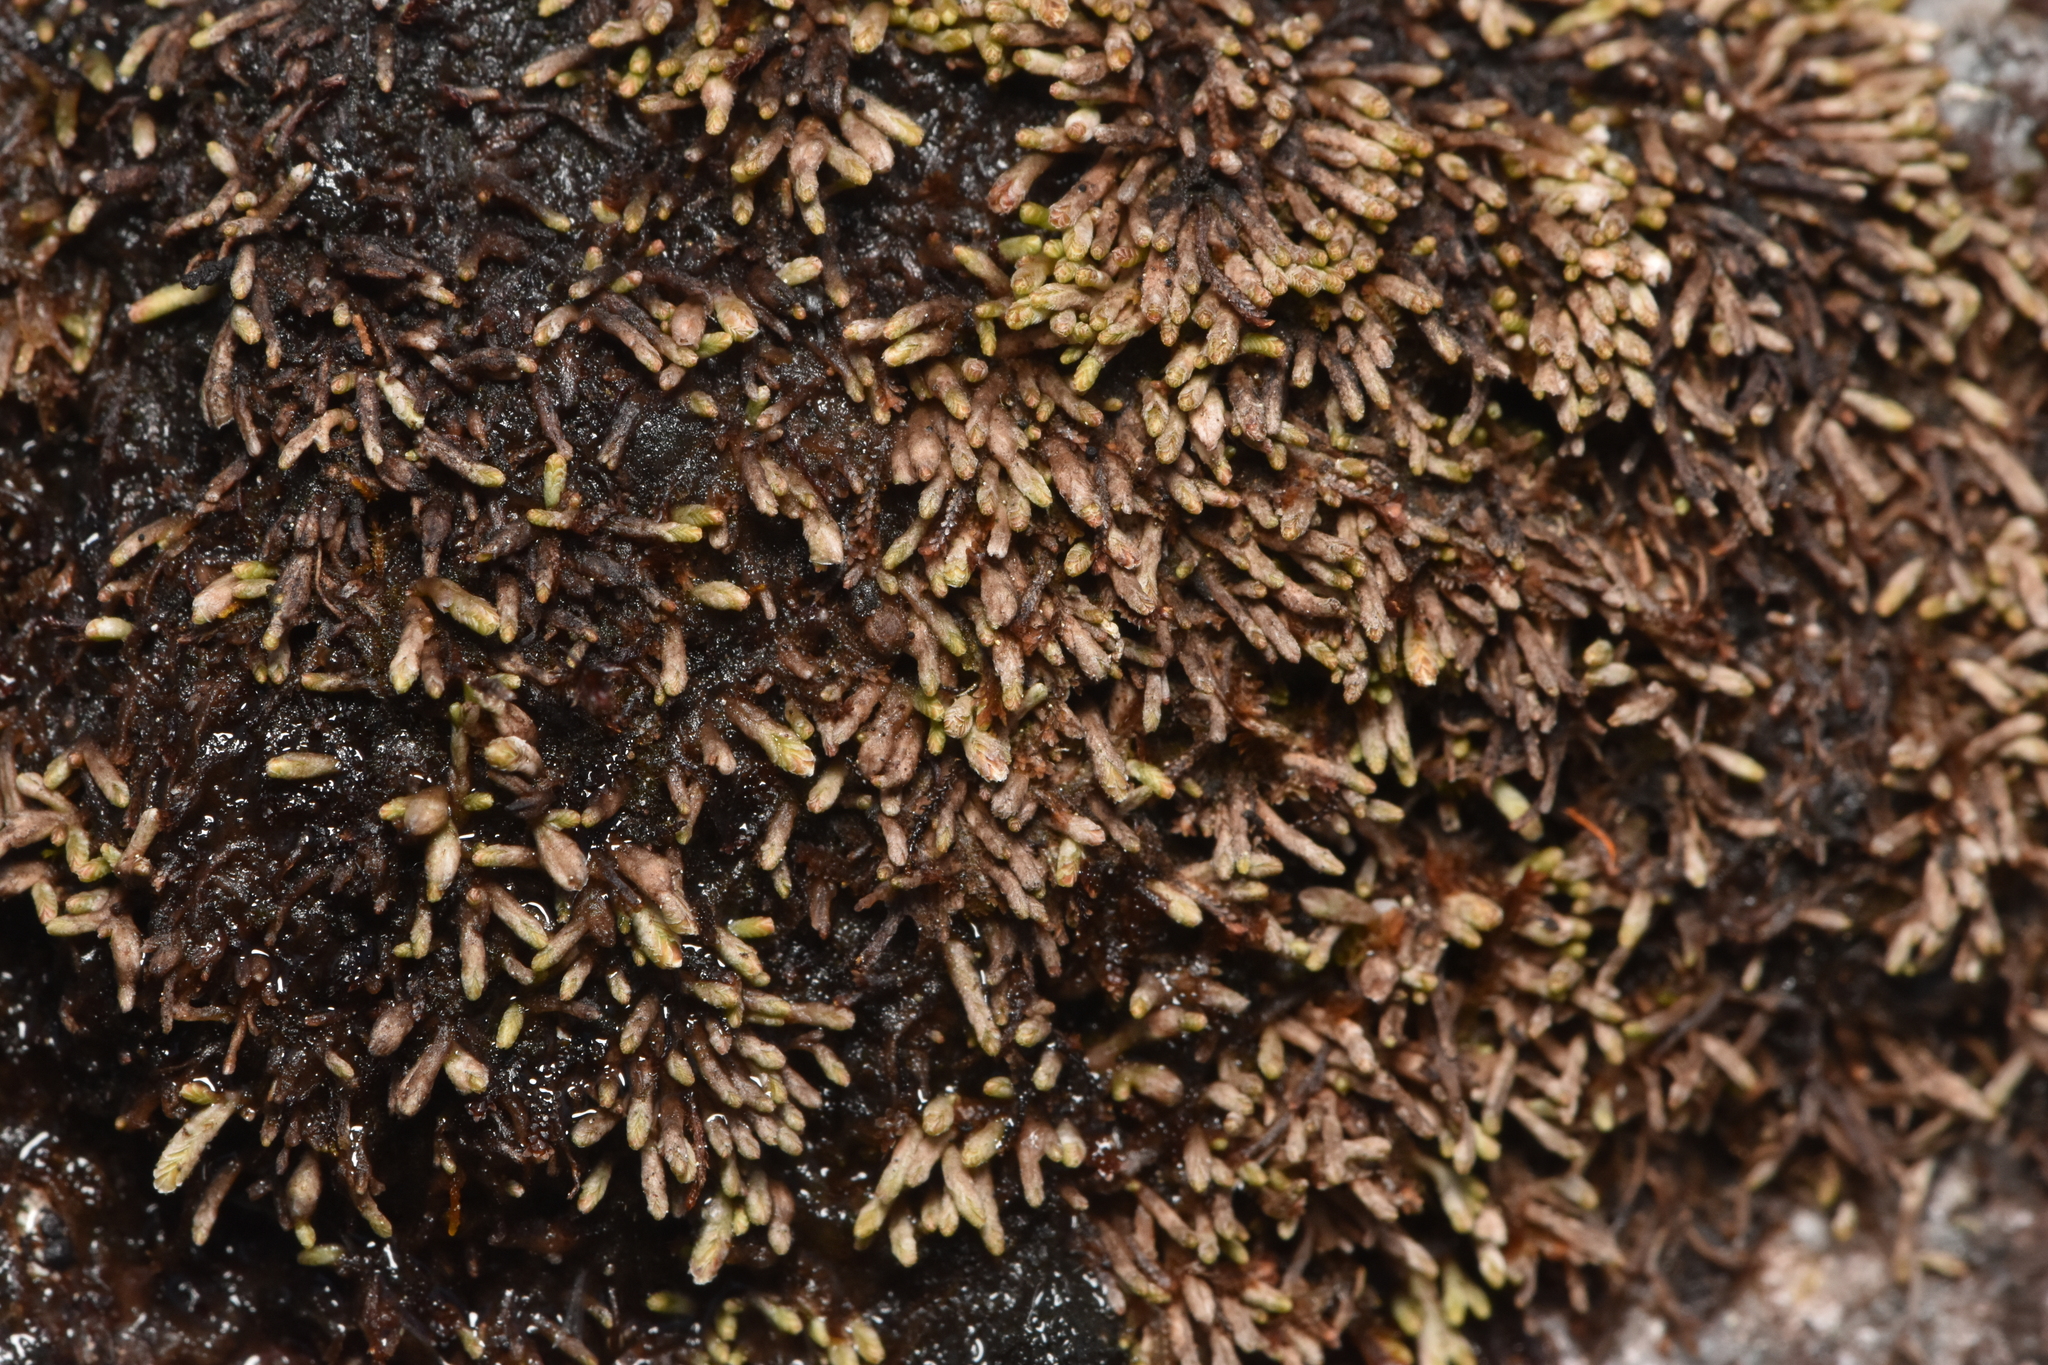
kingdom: Plantae
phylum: Marchantiophyta
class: Jungermanniopsida
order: Jungermanniales
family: Gymnomitriaceae
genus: Gymnomitrion
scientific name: Gymnomitrion obtusum
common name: White frostwort
